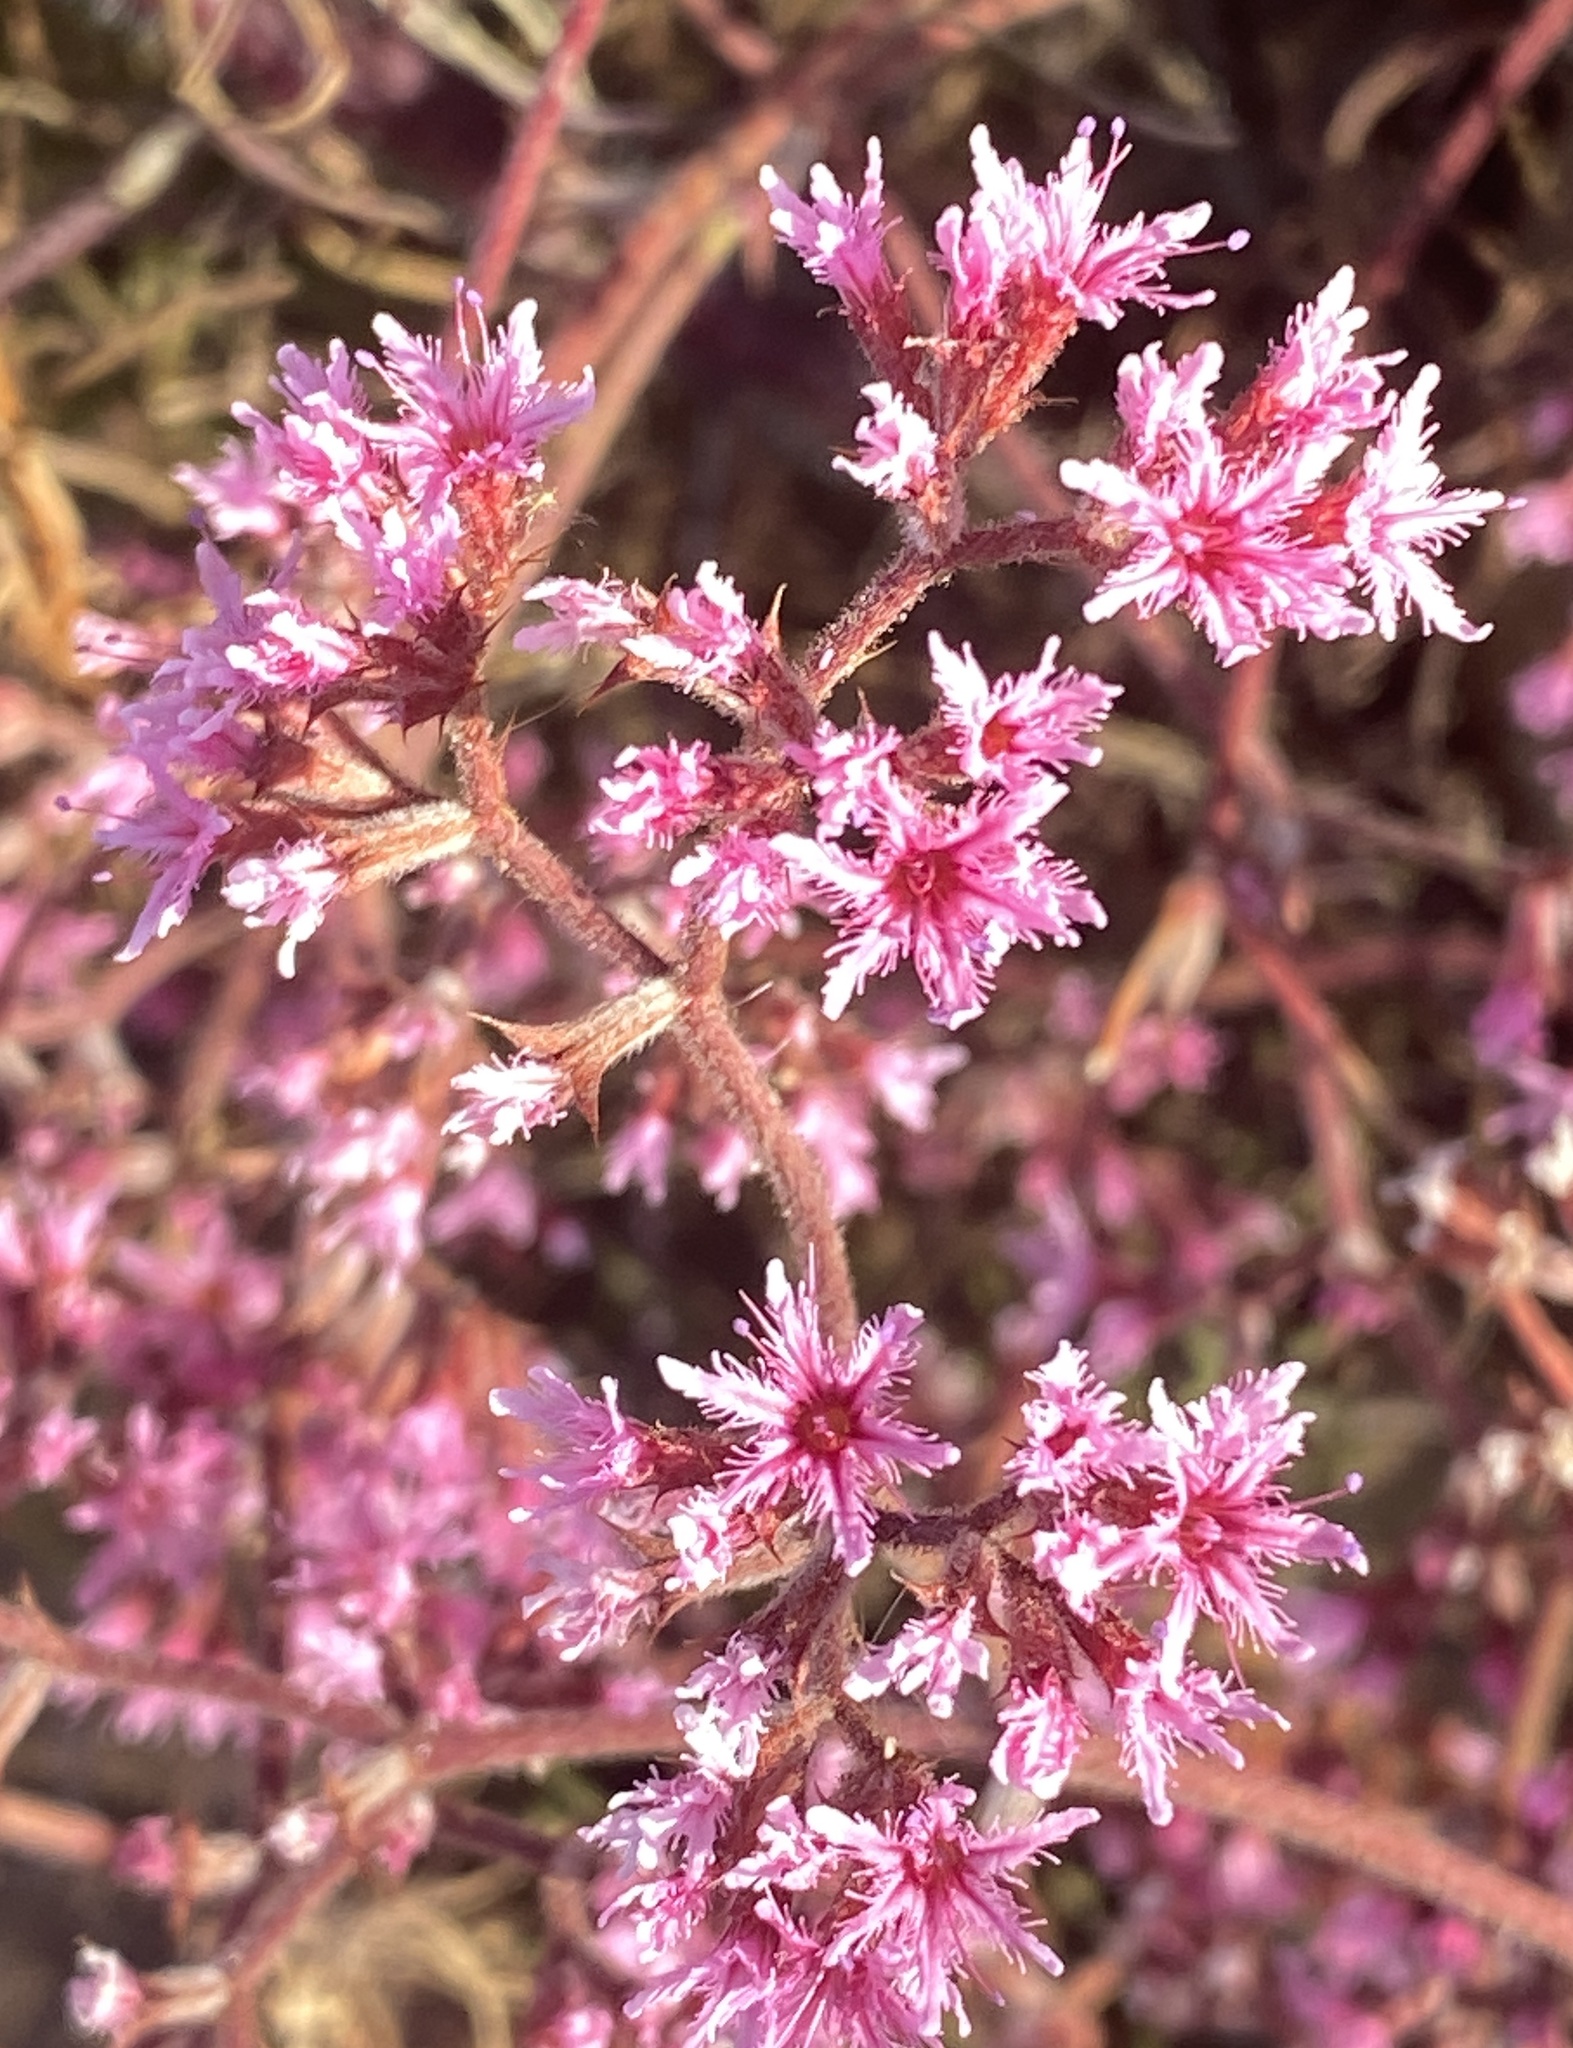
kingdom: Plantae
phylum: Tracheophyta
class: Magnoliopsida
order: Caryophyllales
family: Polygonaceae
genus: Chorizanthe
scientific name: Chorizanthe fimbriata
